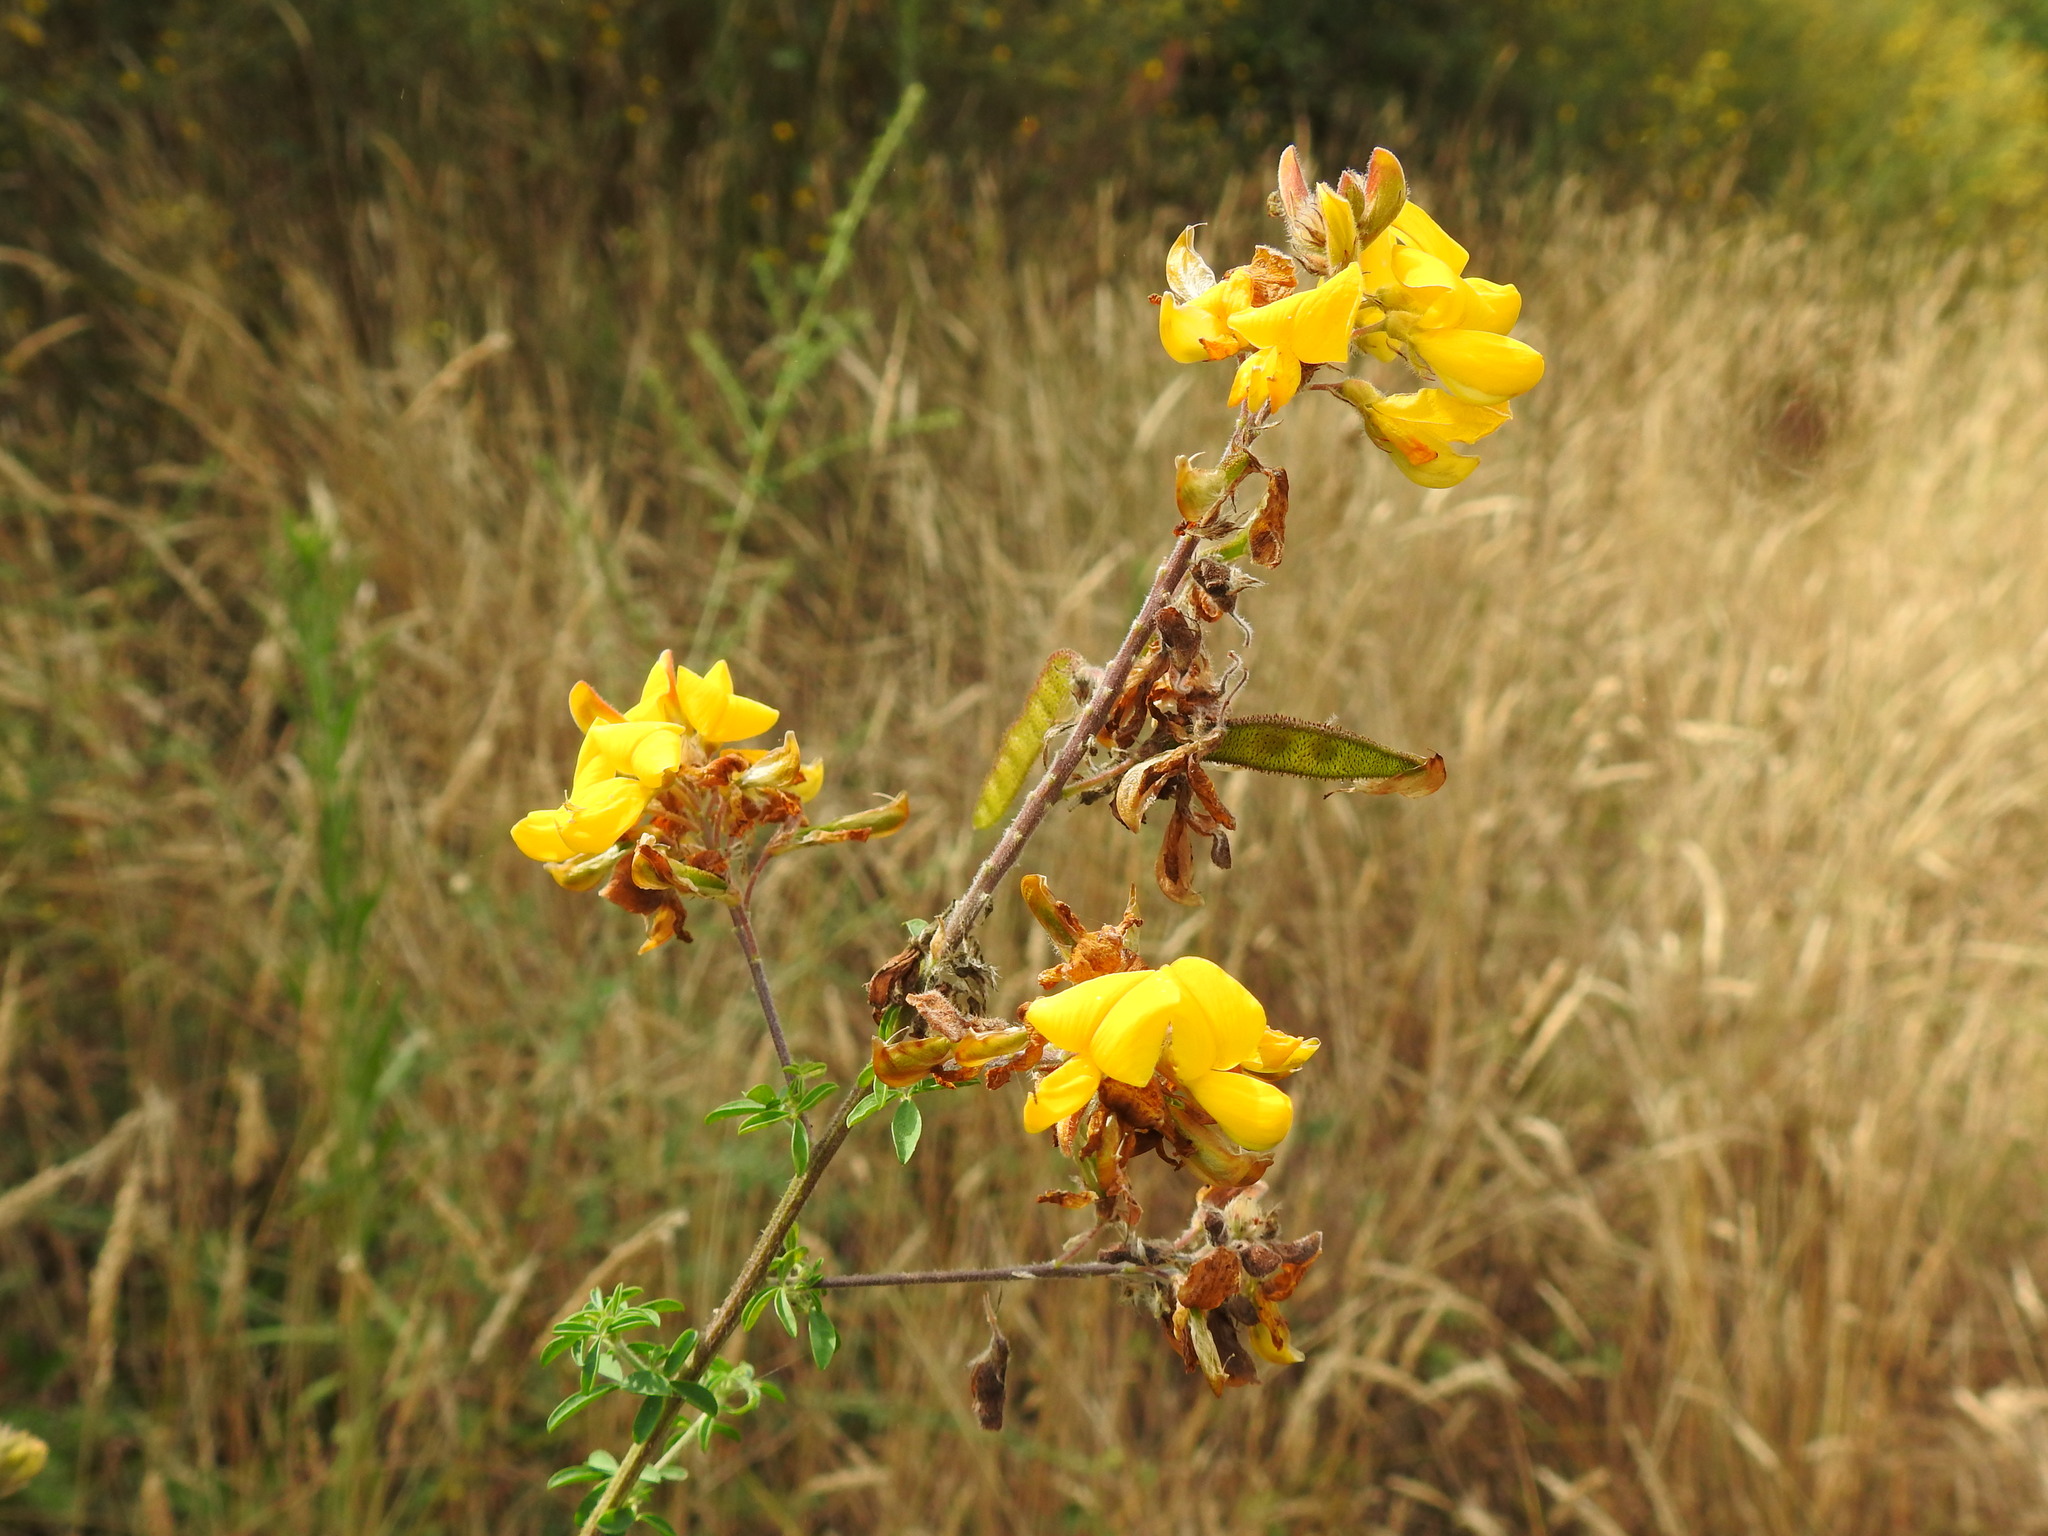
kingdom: Plantae
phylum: Tracheophyta
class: Magnoliopsida
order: Fabales
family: Fabaceae
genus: Adenocarpus
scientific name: Adenocarpus complicatus
